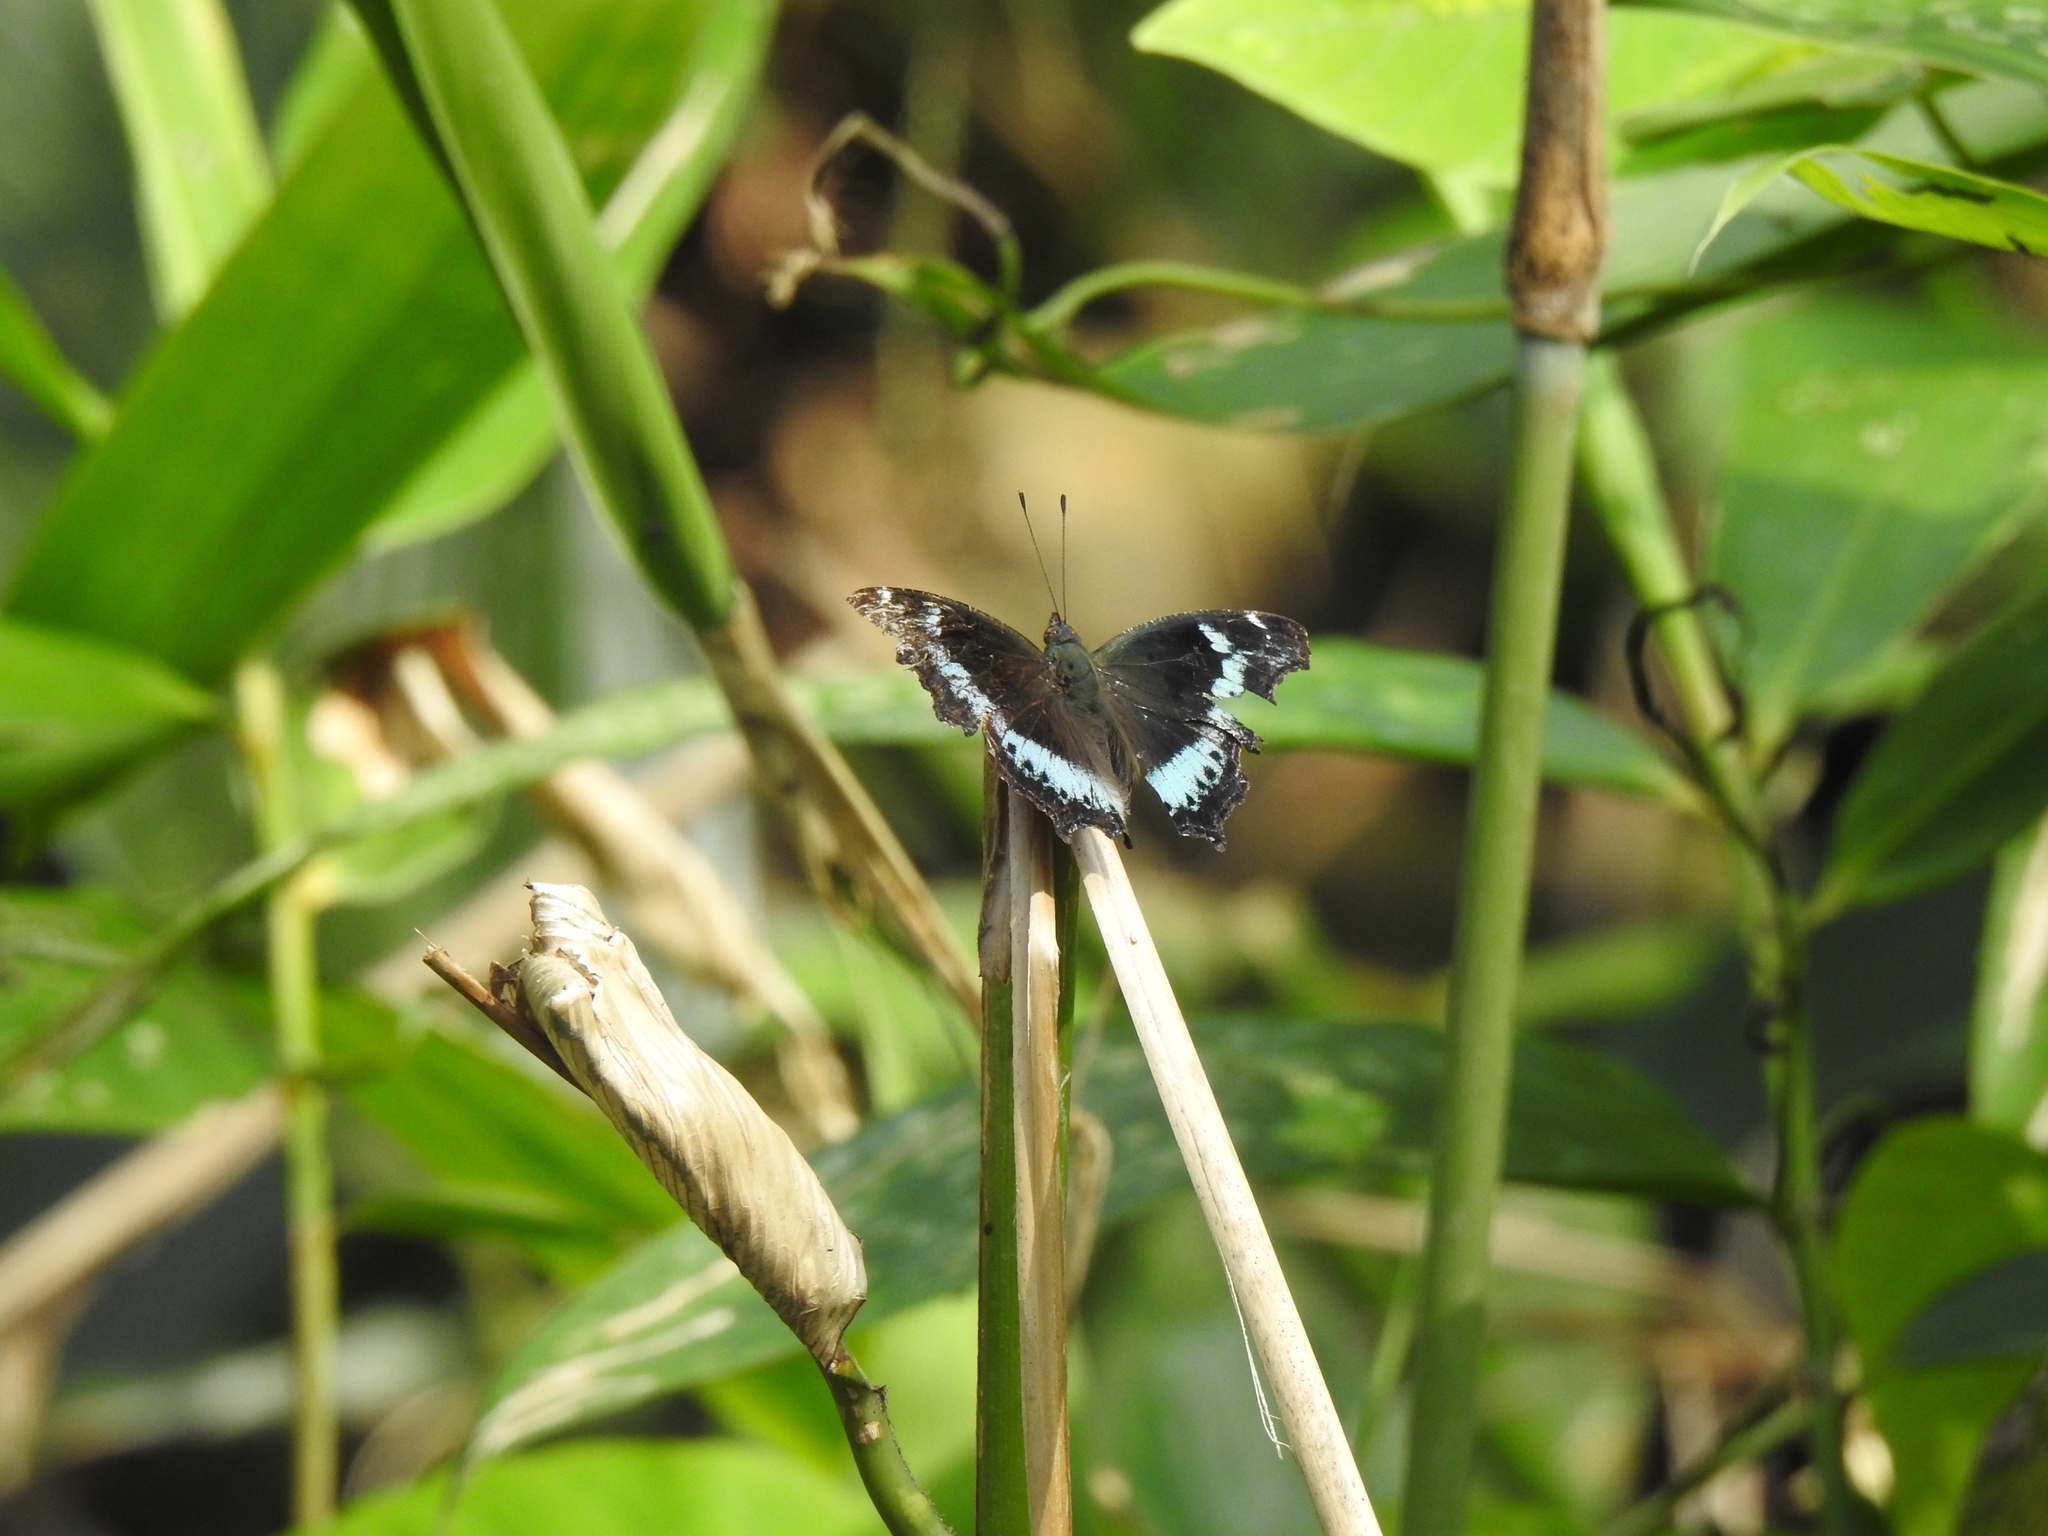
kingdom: Animalia
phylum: Arthropoda
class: Insecta
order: Lepidoptera
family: Nymphalidae
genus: Vanessa
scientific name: Vanessa Kaniska canace
